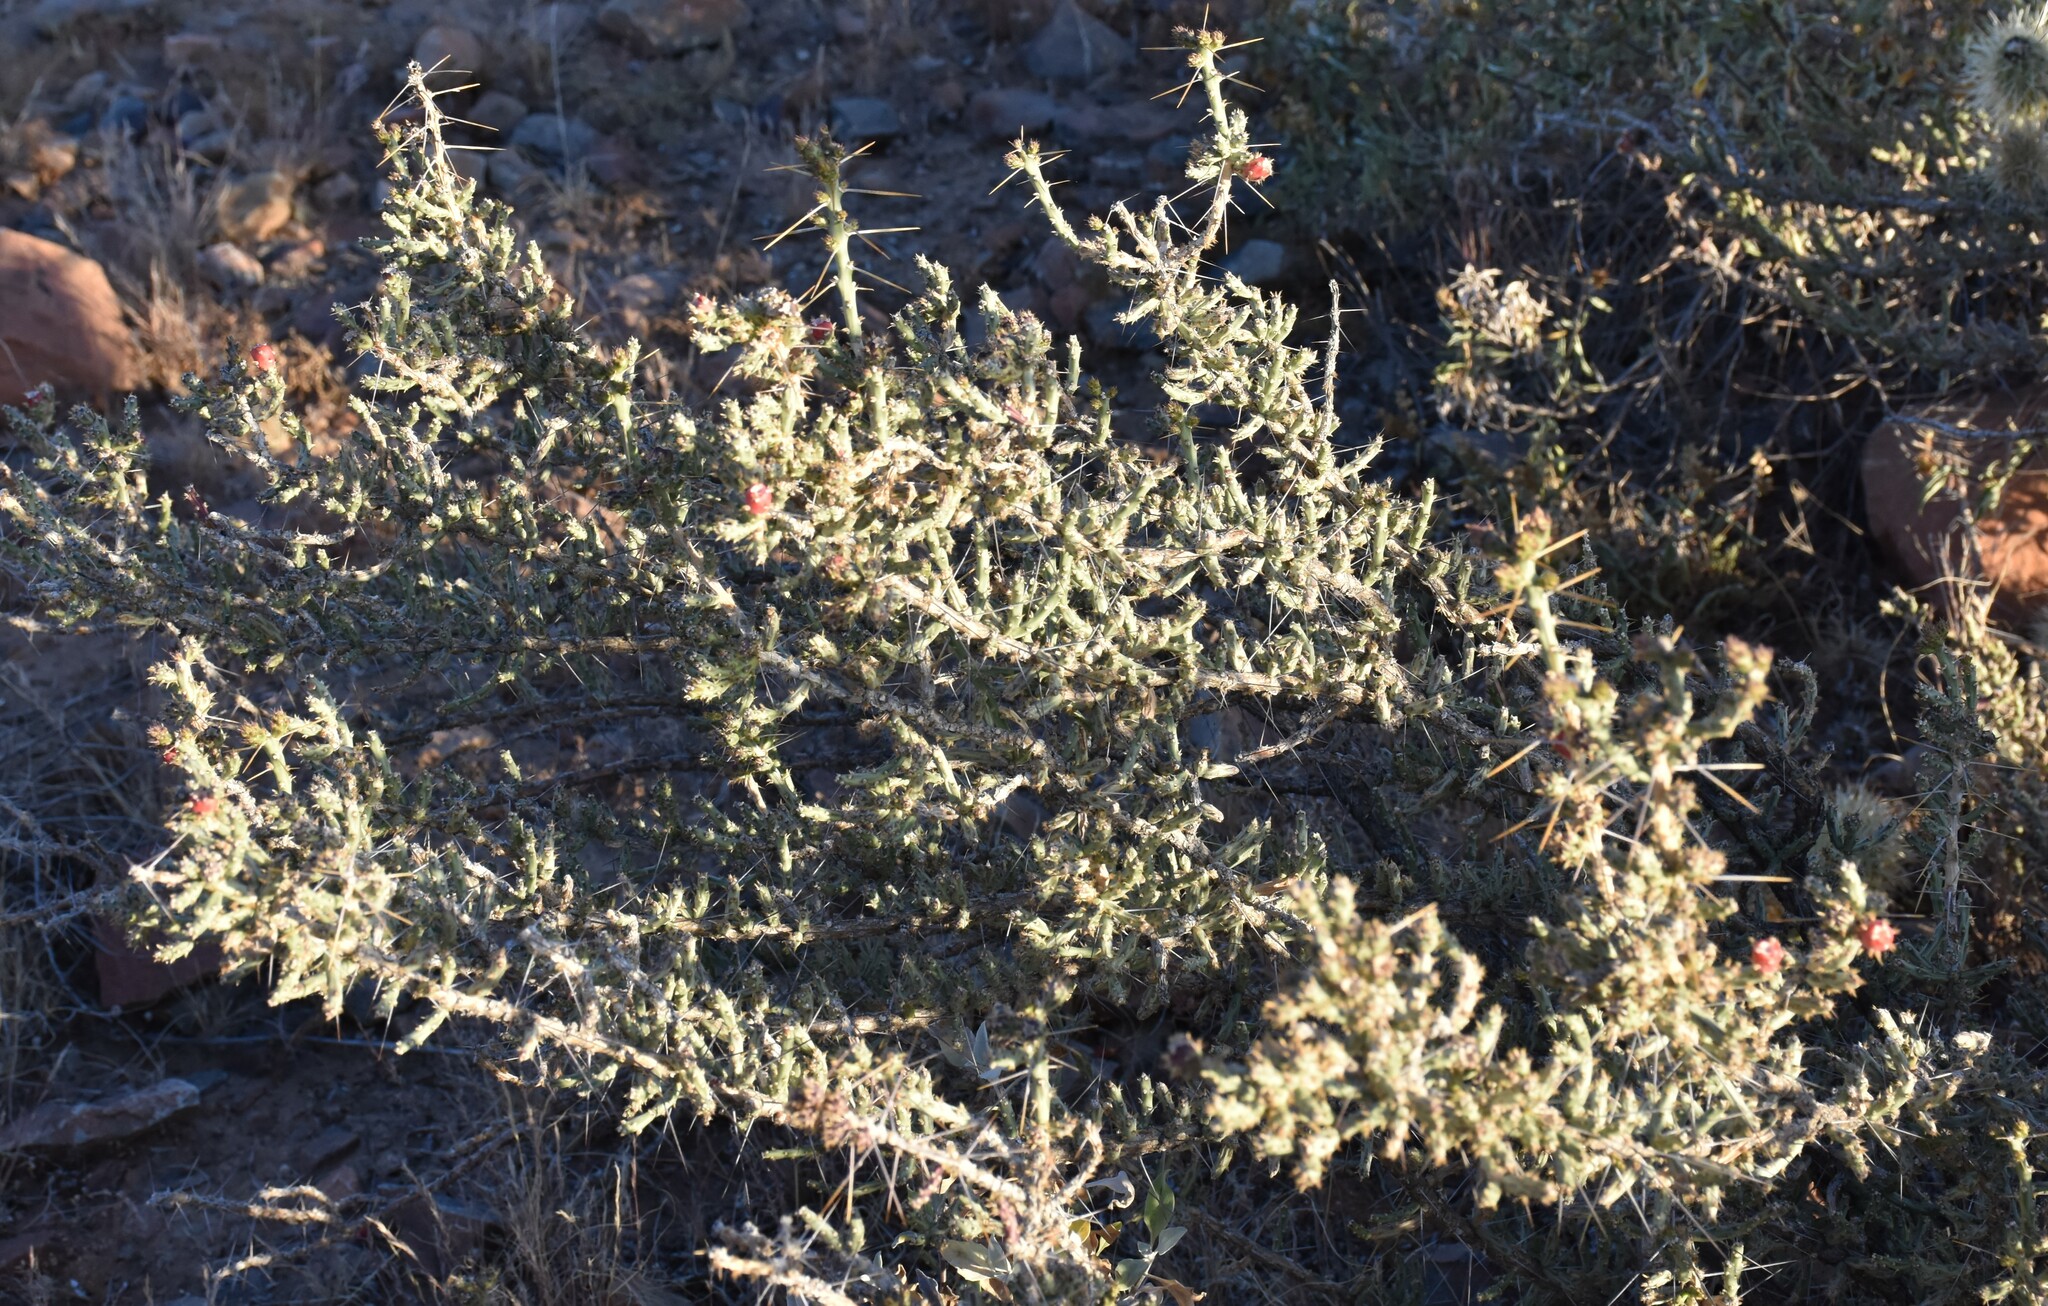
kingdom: Plantae
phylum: Tracheophyta
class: Magnoliopsida
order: Caryophyllales
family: Cactaceae
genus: Cylindropuntia
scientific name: Cylindropuntia leptocaulis
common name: Christmas cactus
